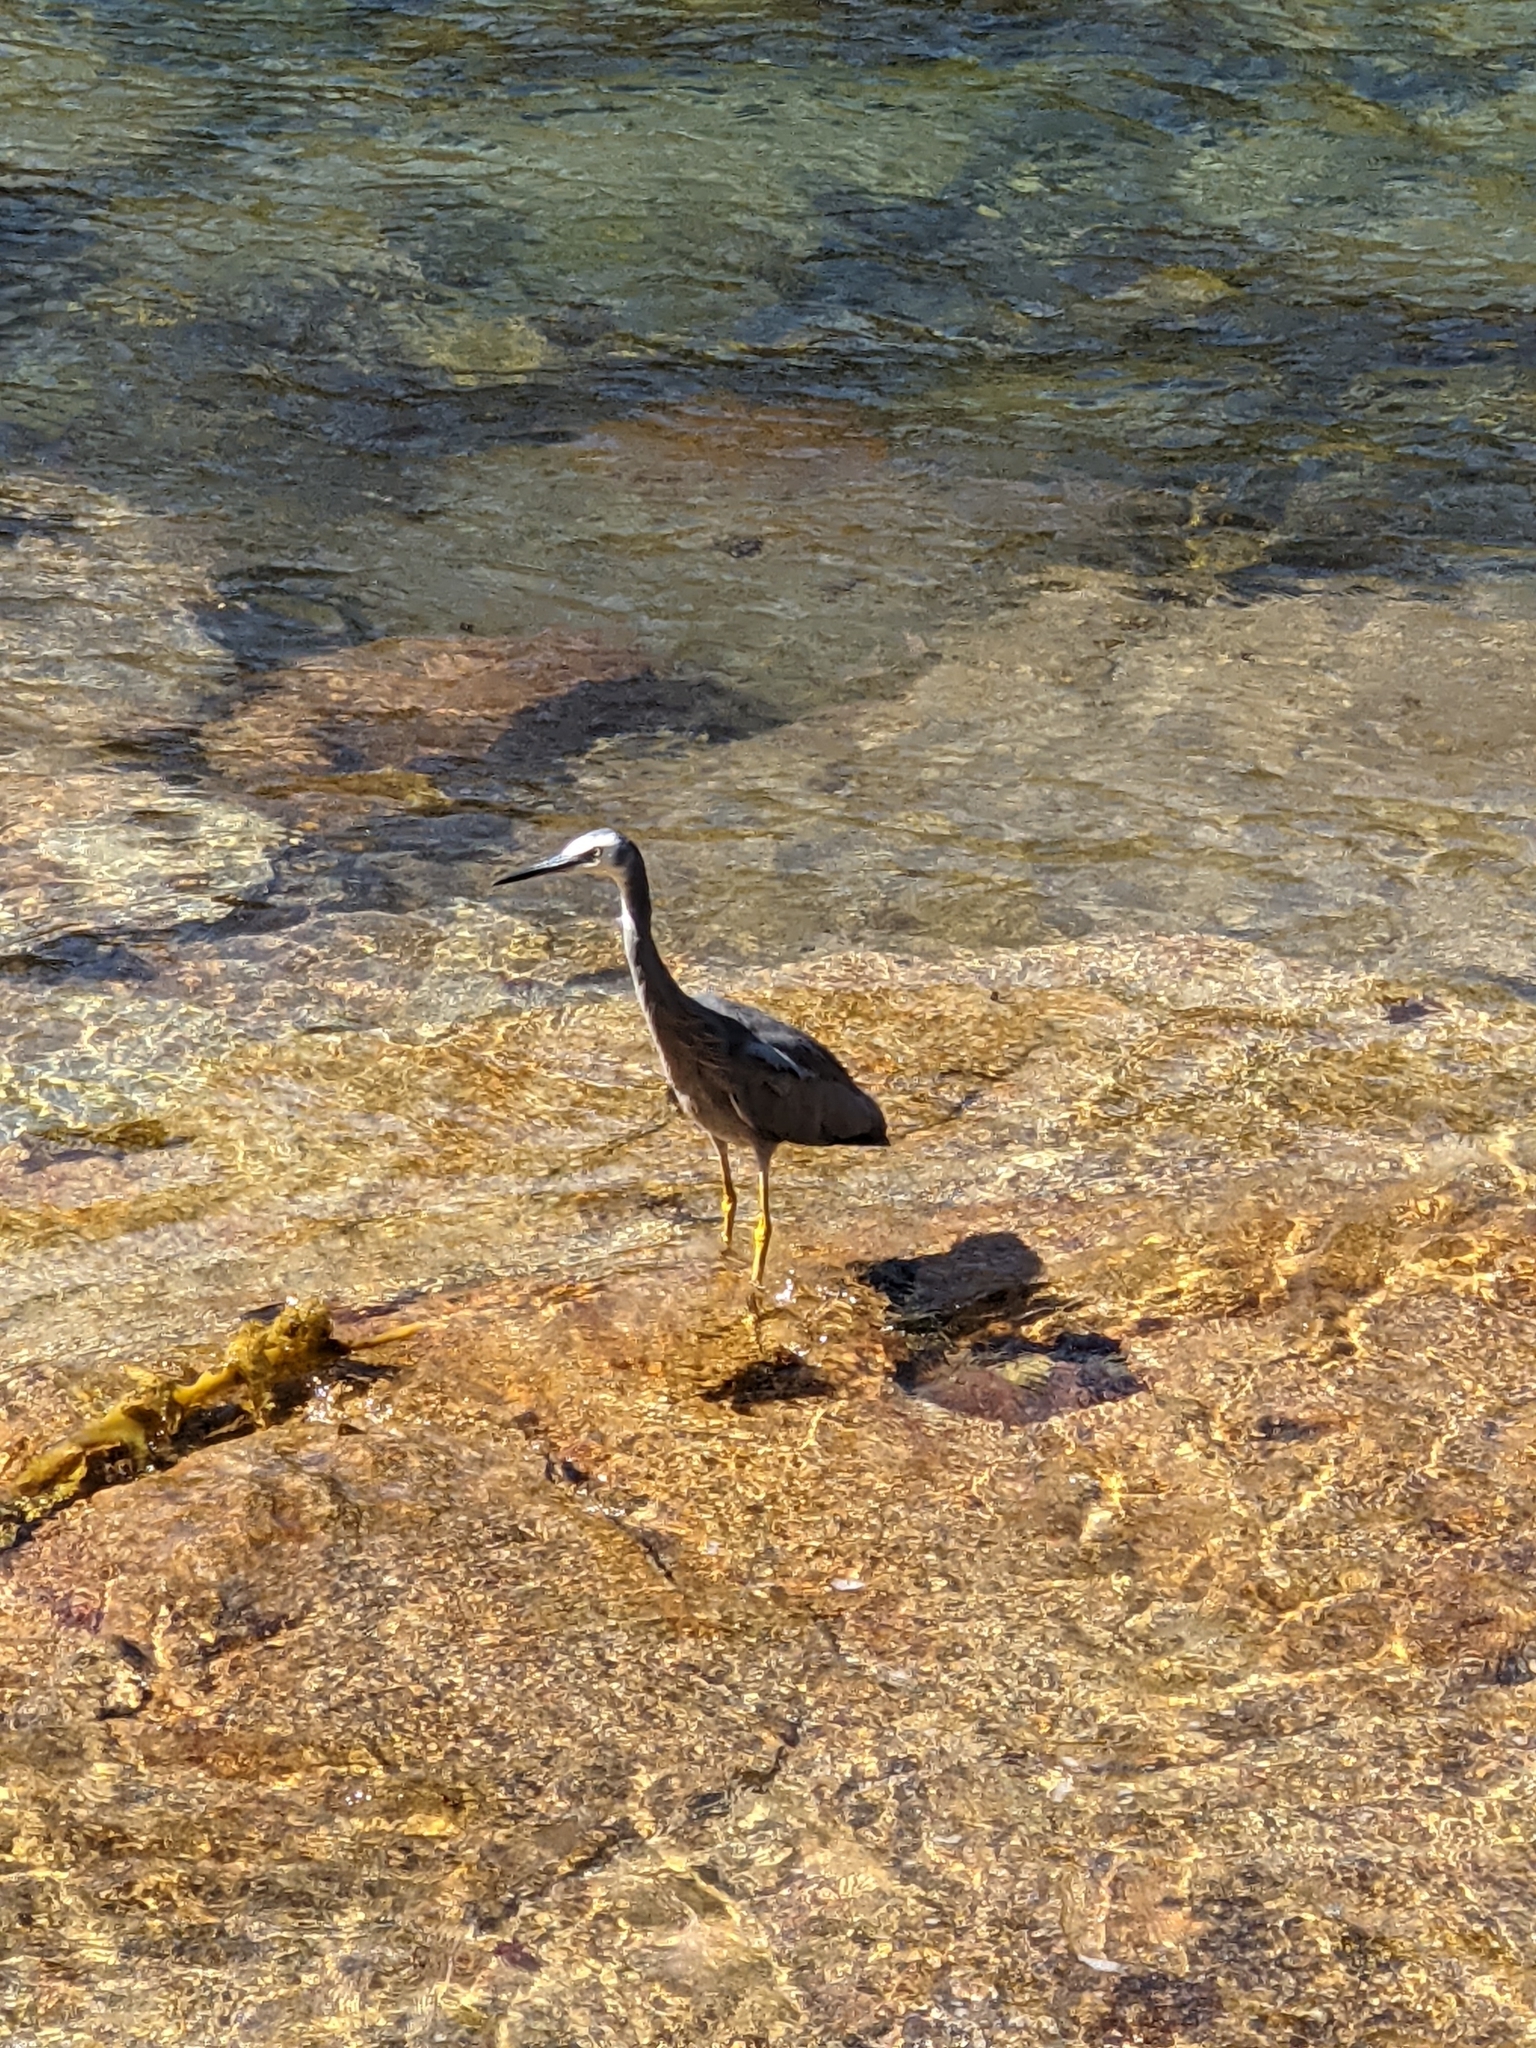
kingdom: Animalia
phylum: Chordata
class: Aves
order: Pelecaniformes
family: Ardeidae
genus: Egretta
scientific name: Egretta novaehollandiae
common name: White-faced heron
